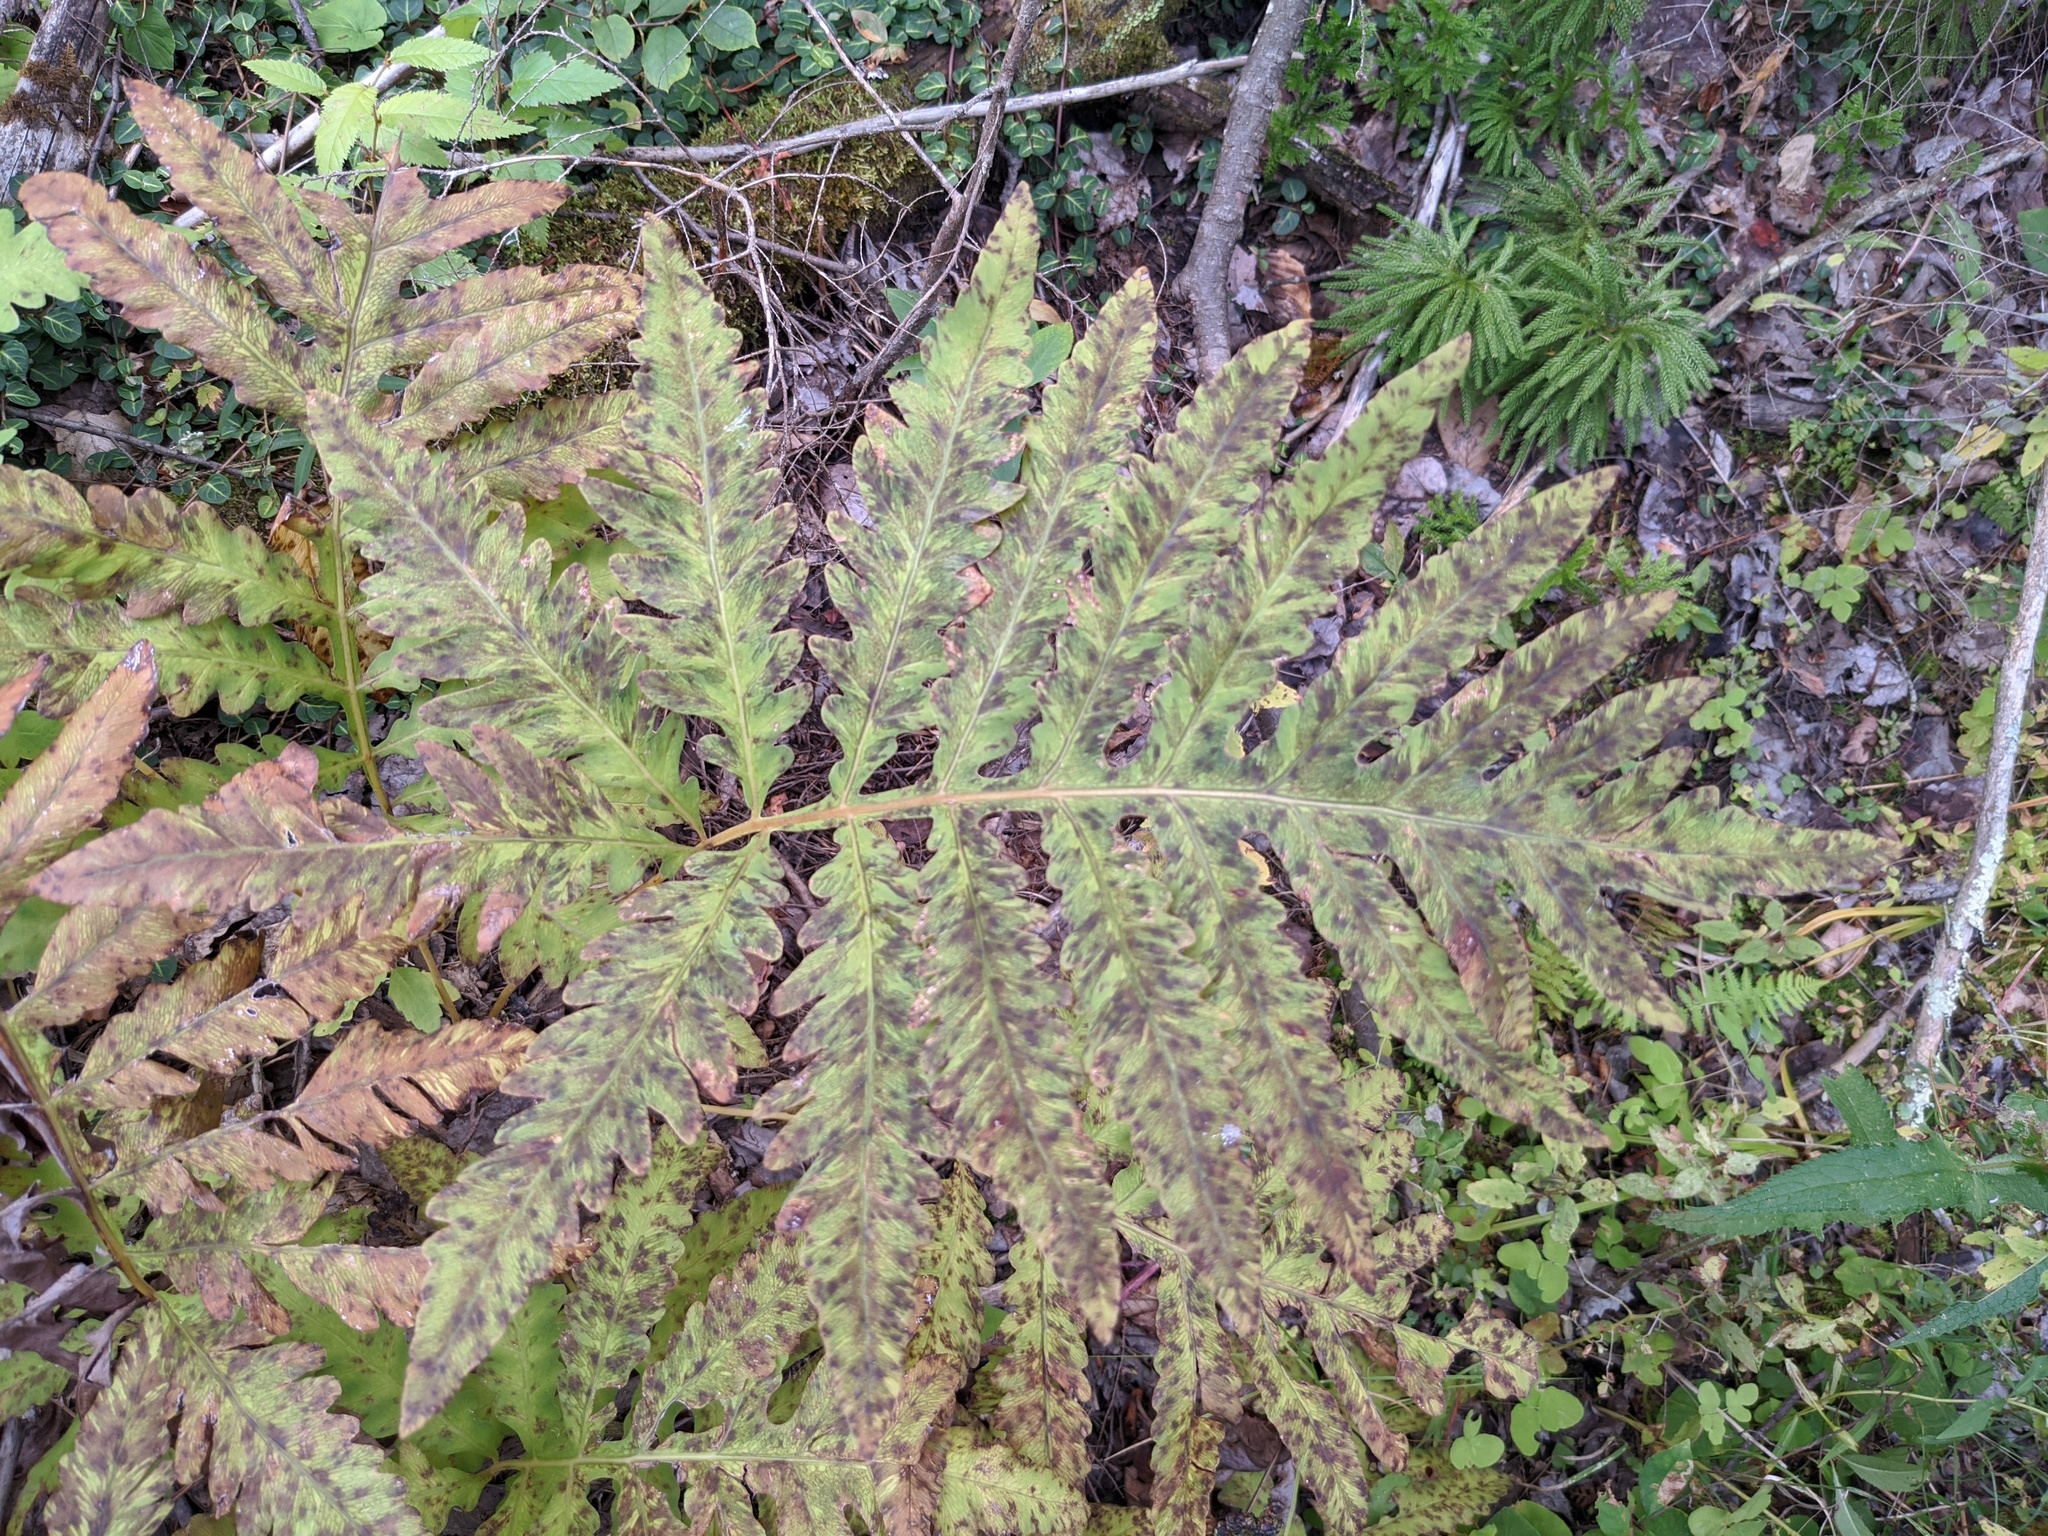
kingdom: Plantae
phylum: Tracheophyta
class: Polypodiopsida
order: Polypodiales
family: Onocleaceae
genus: Onoclea
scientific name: Onoclea sensibilis
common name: Sensitive fern
